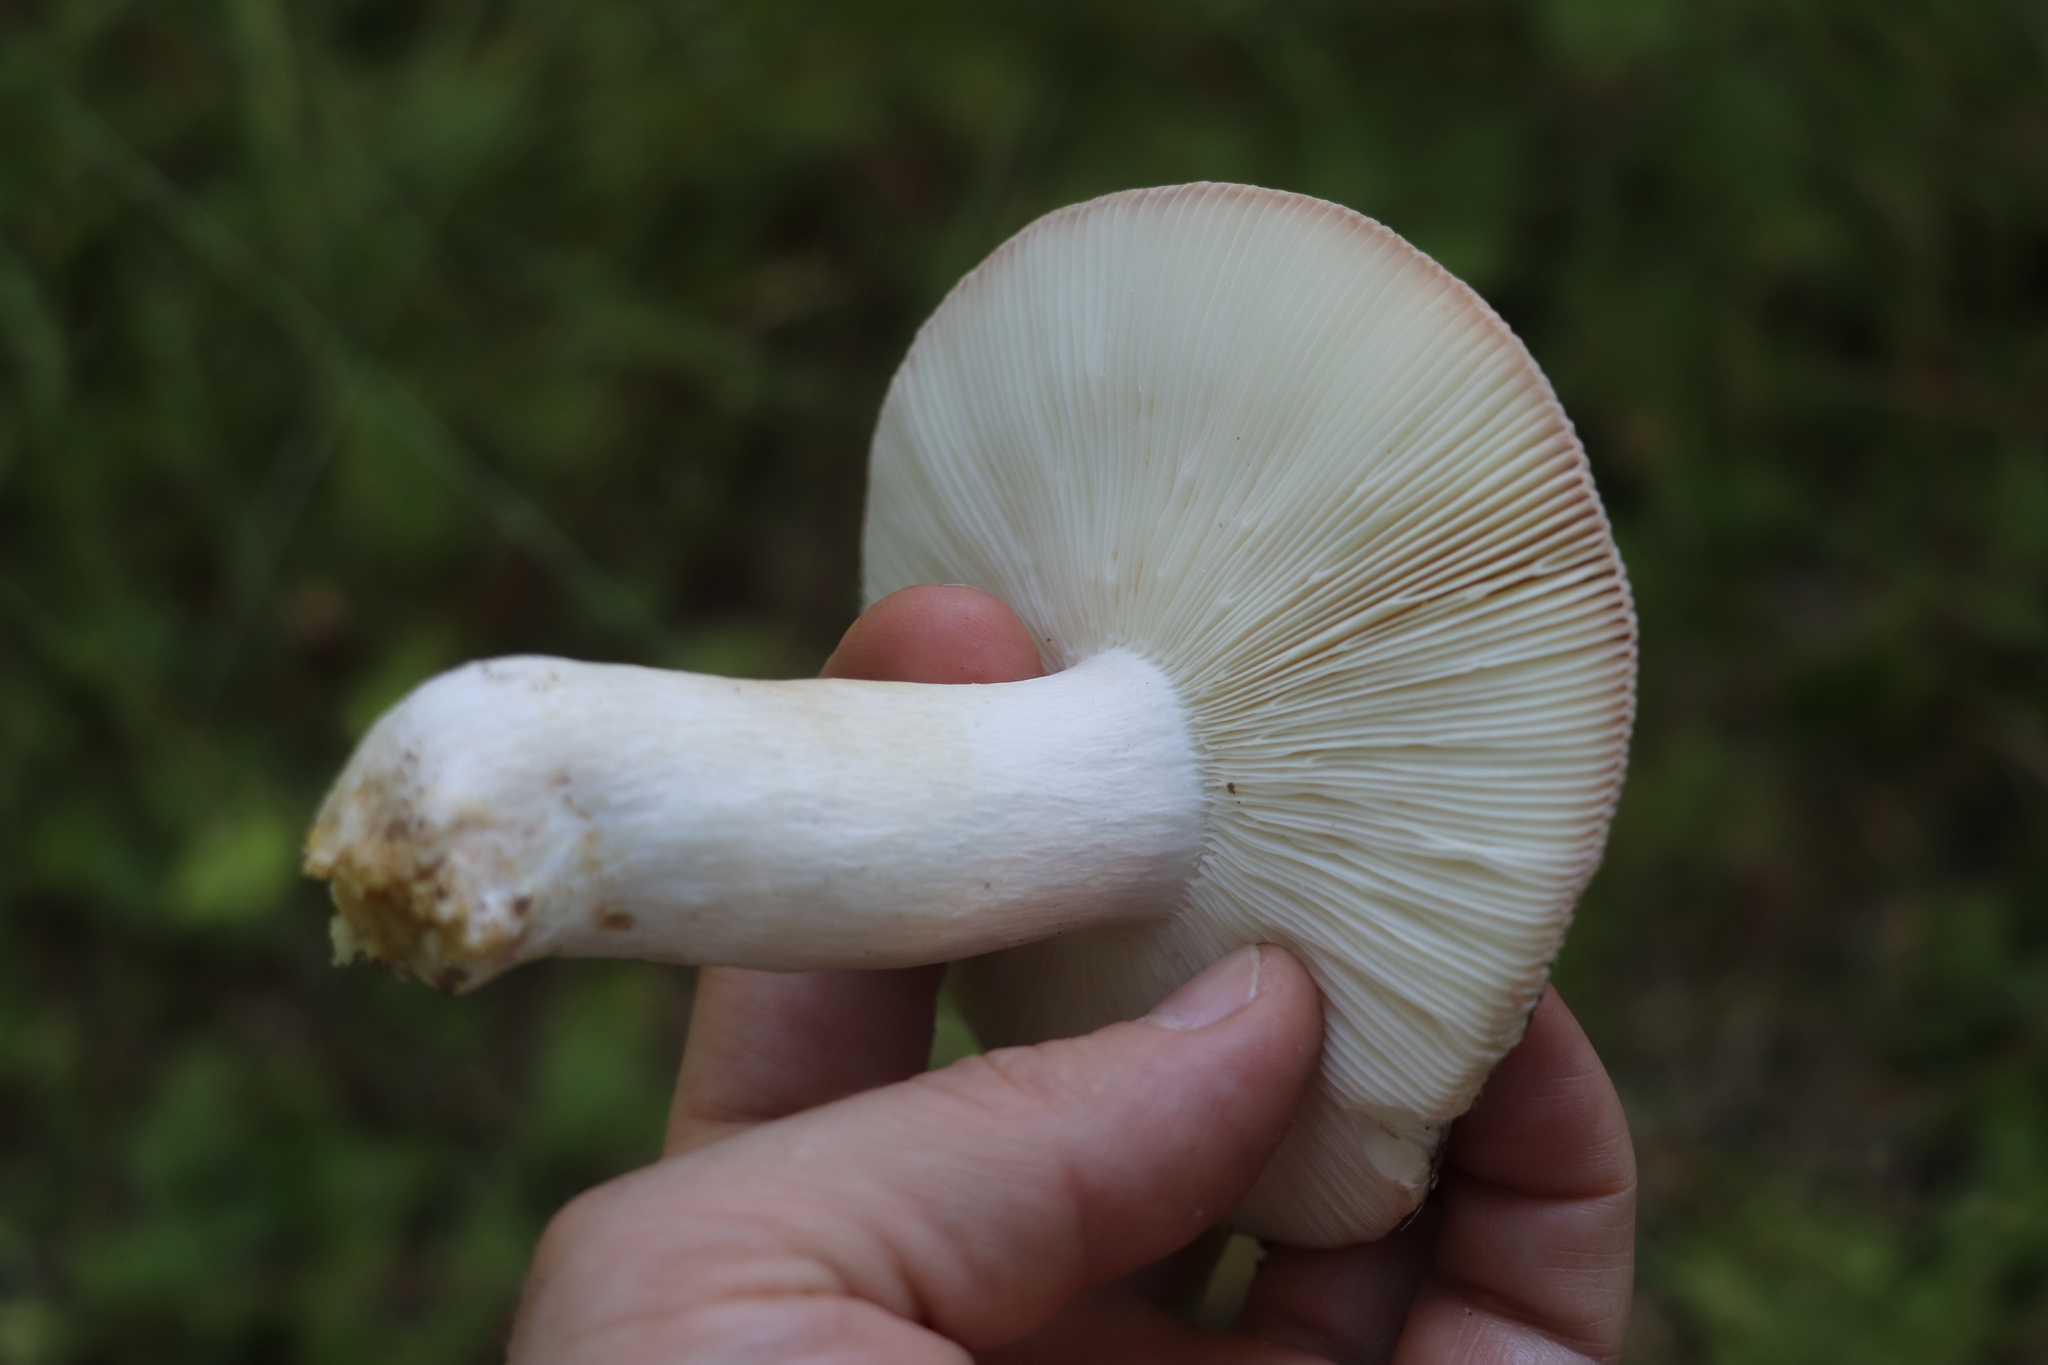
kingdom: Fungi
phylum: Basidiomycota
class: Agaricomycetes
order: Russulales
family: Russulaceae
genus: Russula
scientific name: Russula vesca
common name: Bare-toothed russula
